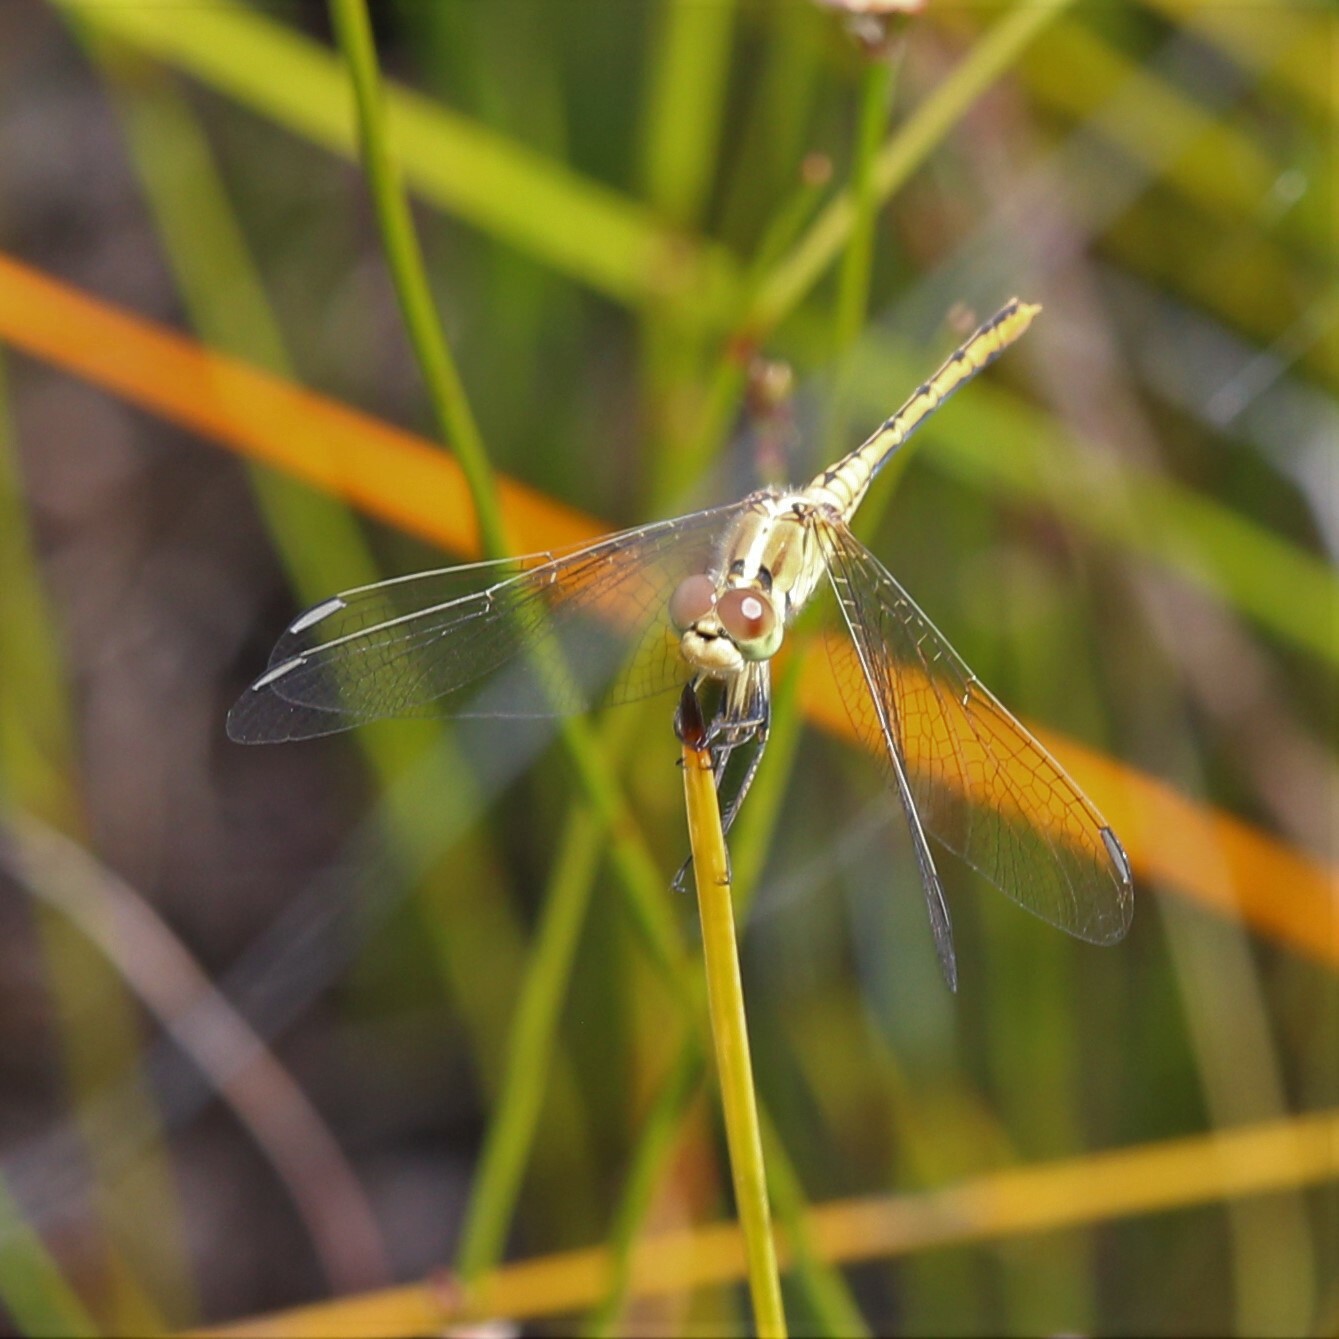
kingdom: Animalia
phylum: Arthropoda
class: Insecta
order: Odonata
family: Libellulidae
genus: Diplacodes
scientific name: Diplacodes bipunctata
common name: Red percher dragonfly
